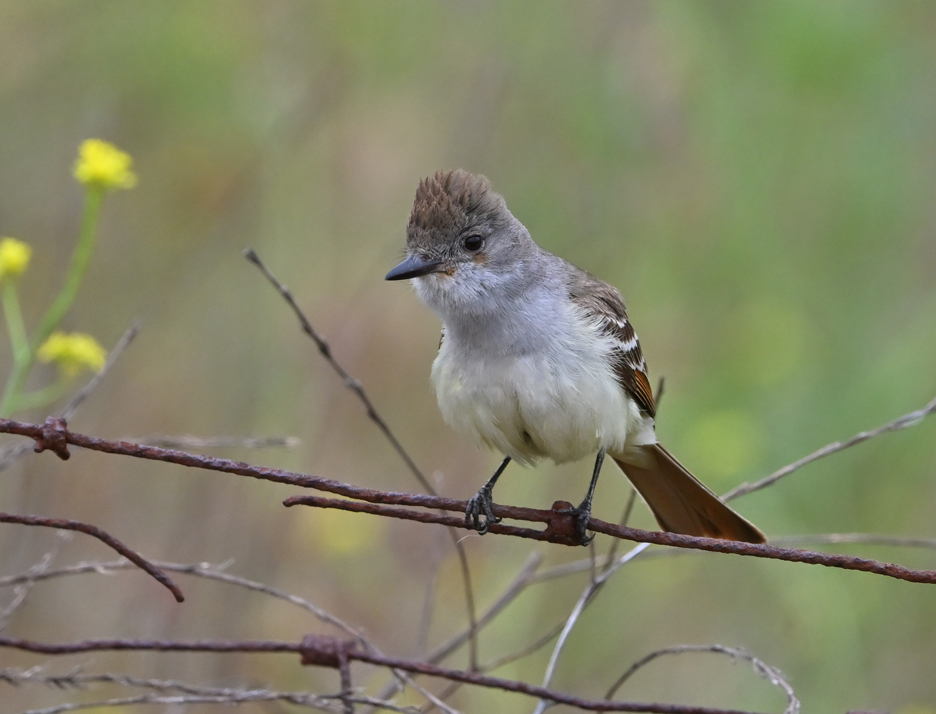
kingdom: Animalia
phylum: Chordata
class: Aves
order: Passeriformes
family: Tyrannidae
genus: Myiarchus
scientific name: Myiarchus cinerascens
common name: Ash-throated flycatcher
